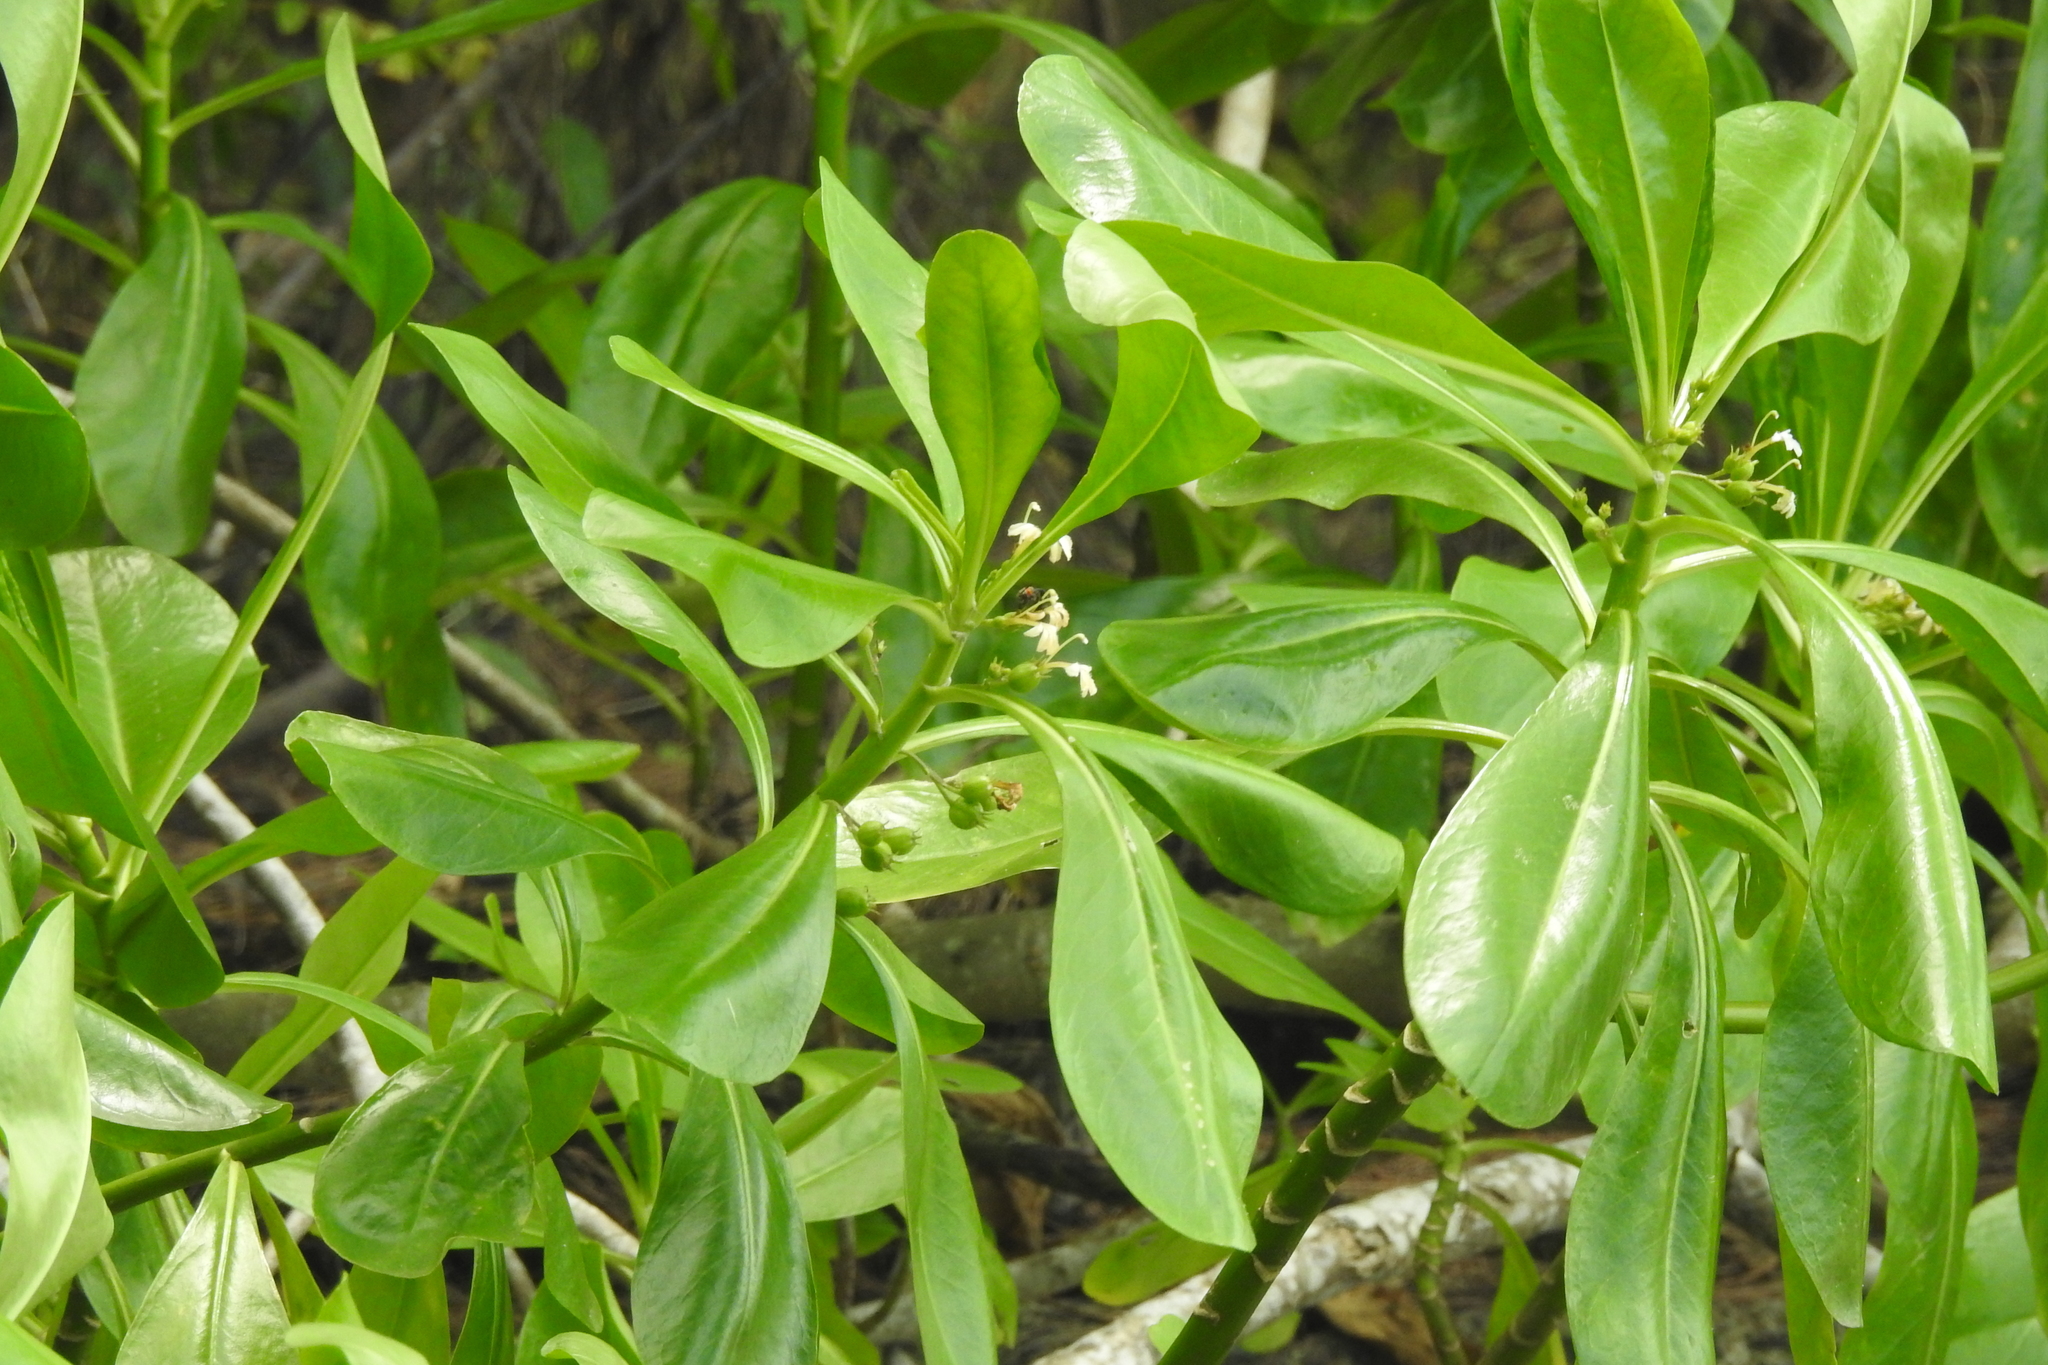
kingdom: Plantae
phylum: Tracheophyta
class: Magnoliopsida
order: Asterales
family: Goodeniaceae
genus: Scaevola
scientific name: Scaevola taccada
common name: Sea lettucetree
